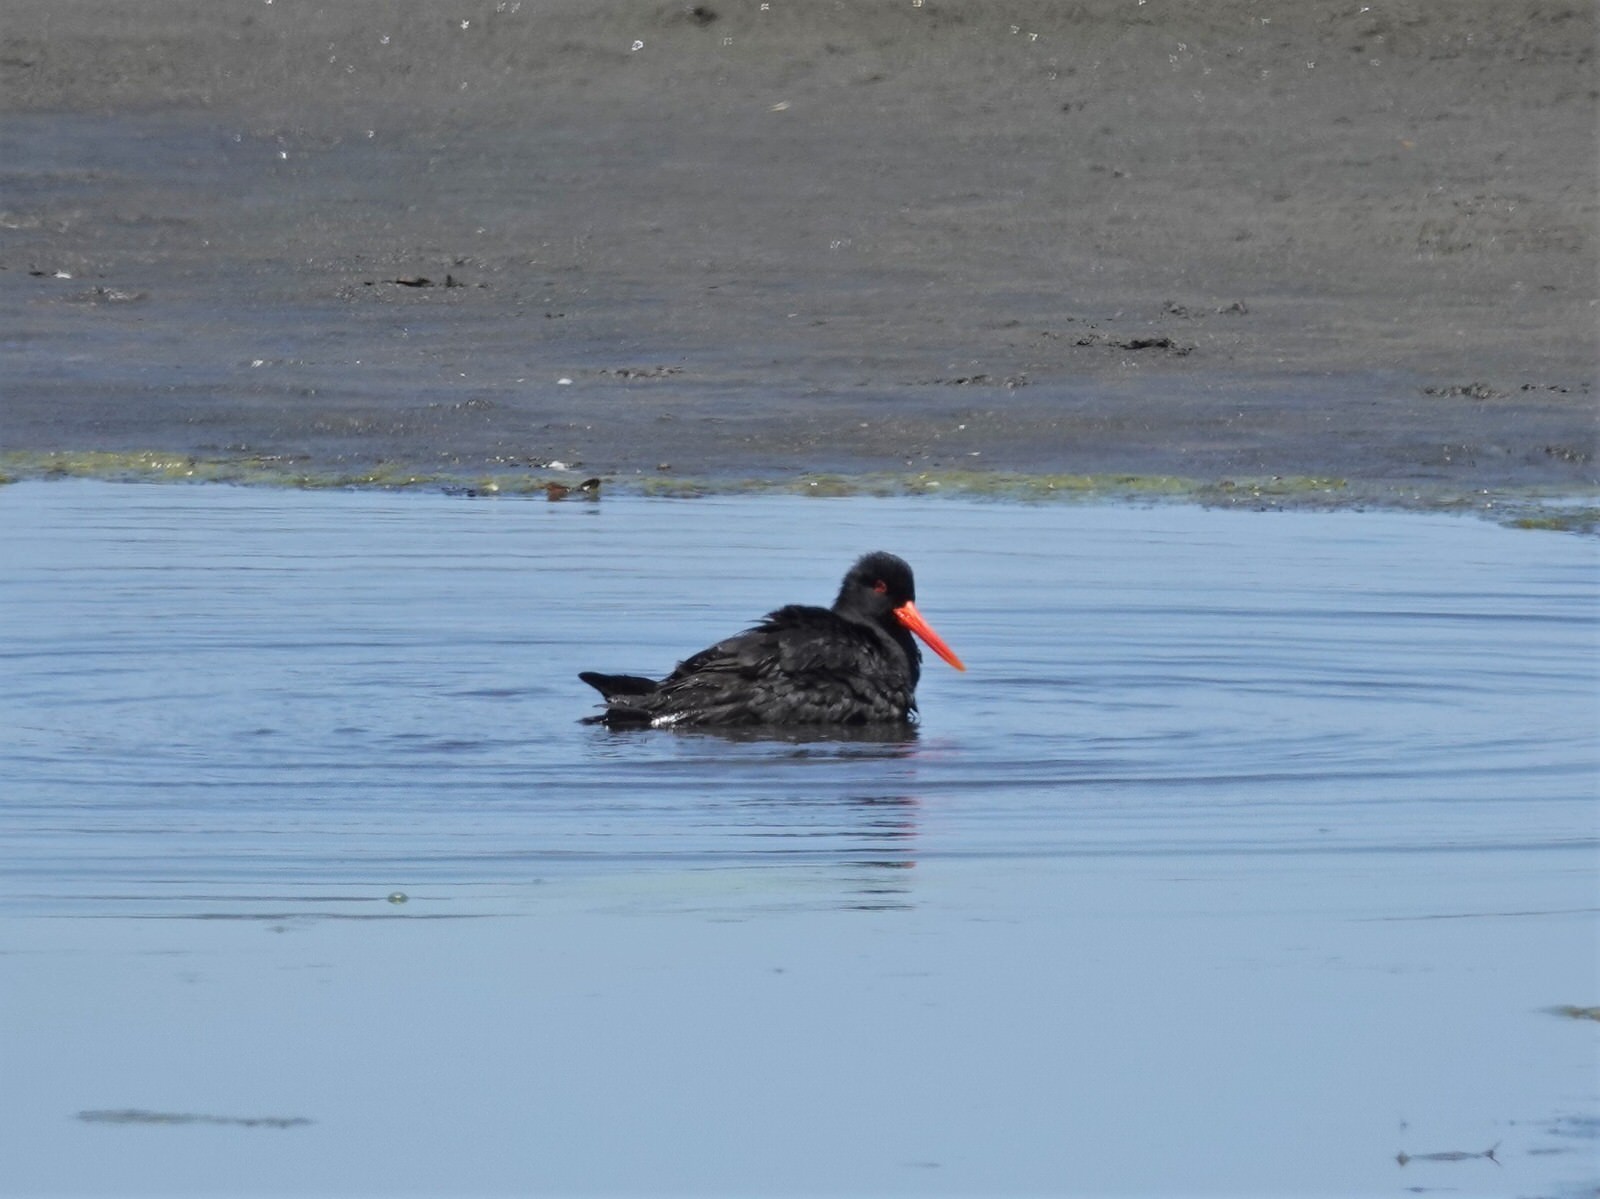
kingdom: Animalia
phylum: Chordata
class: Aves
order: Charadriiformes
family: Haematopodidae
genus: Haematopus
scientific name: Haematopus unicolor
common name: Variable oystercatcher
